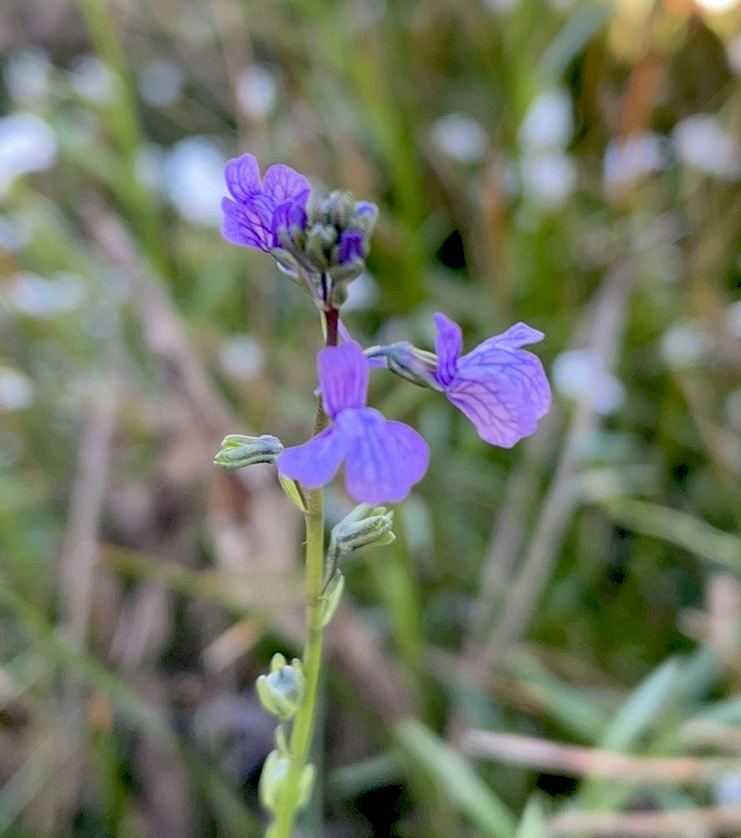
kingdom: Plantae
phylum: Tracheophyta
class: Magnoliopsida
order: Lamiales
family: Plantaginaceae
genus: Nuttallanthus
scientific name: Nuttallanthus texanus
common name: Texas toadflax
